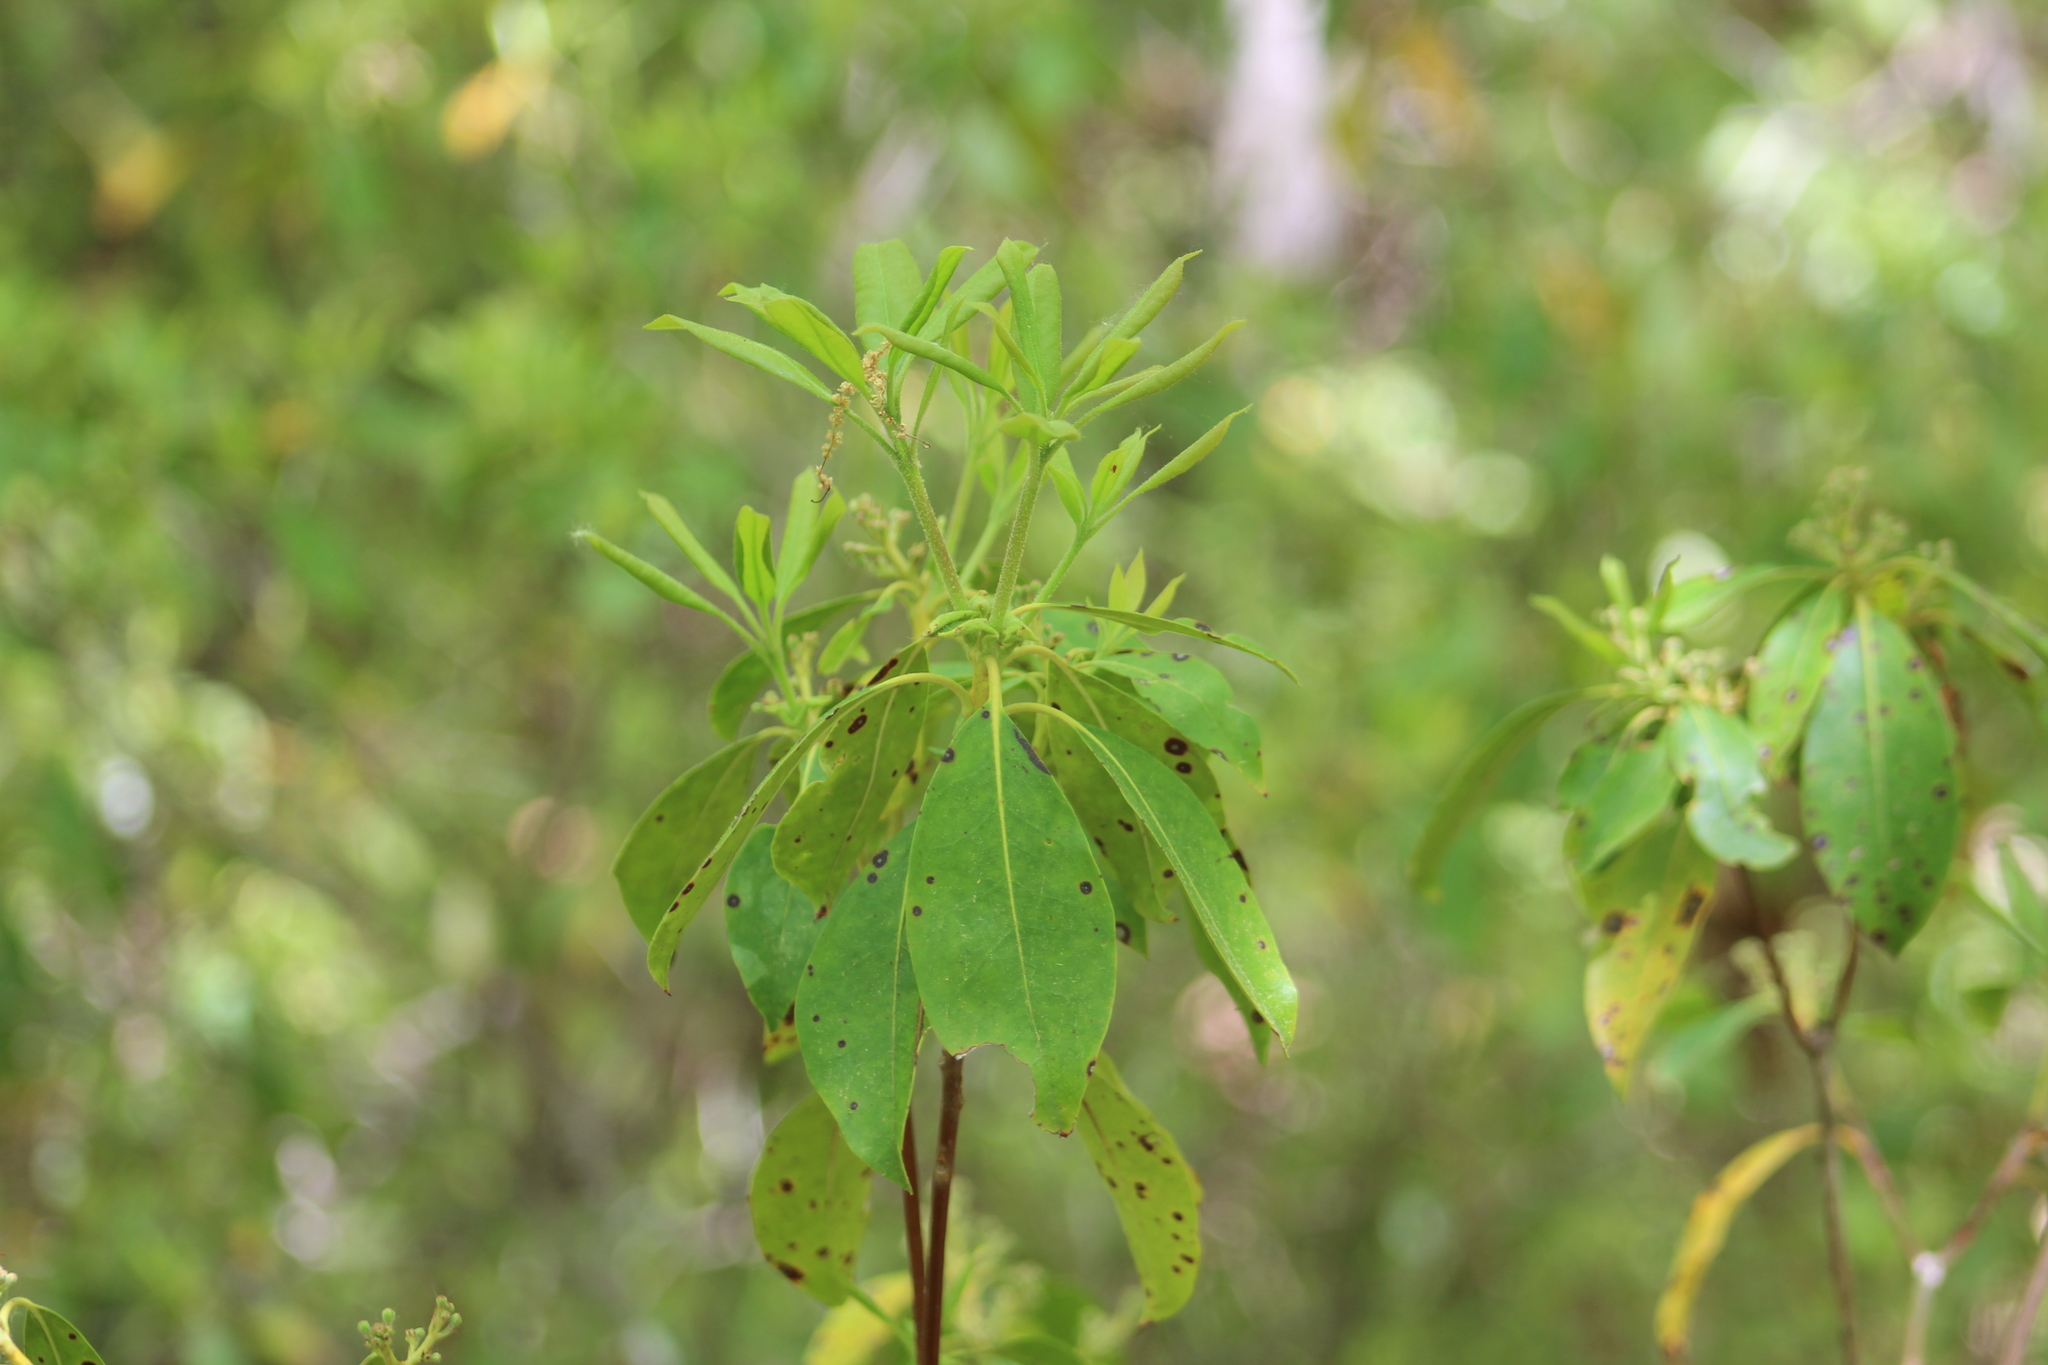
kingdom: Plantae
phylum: Tracheophyta
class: Magnoliopsida
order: Ericales
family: Ericaceae
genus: Kalmia
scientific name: Kalmia angustifolia
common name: Sheep-laurel
